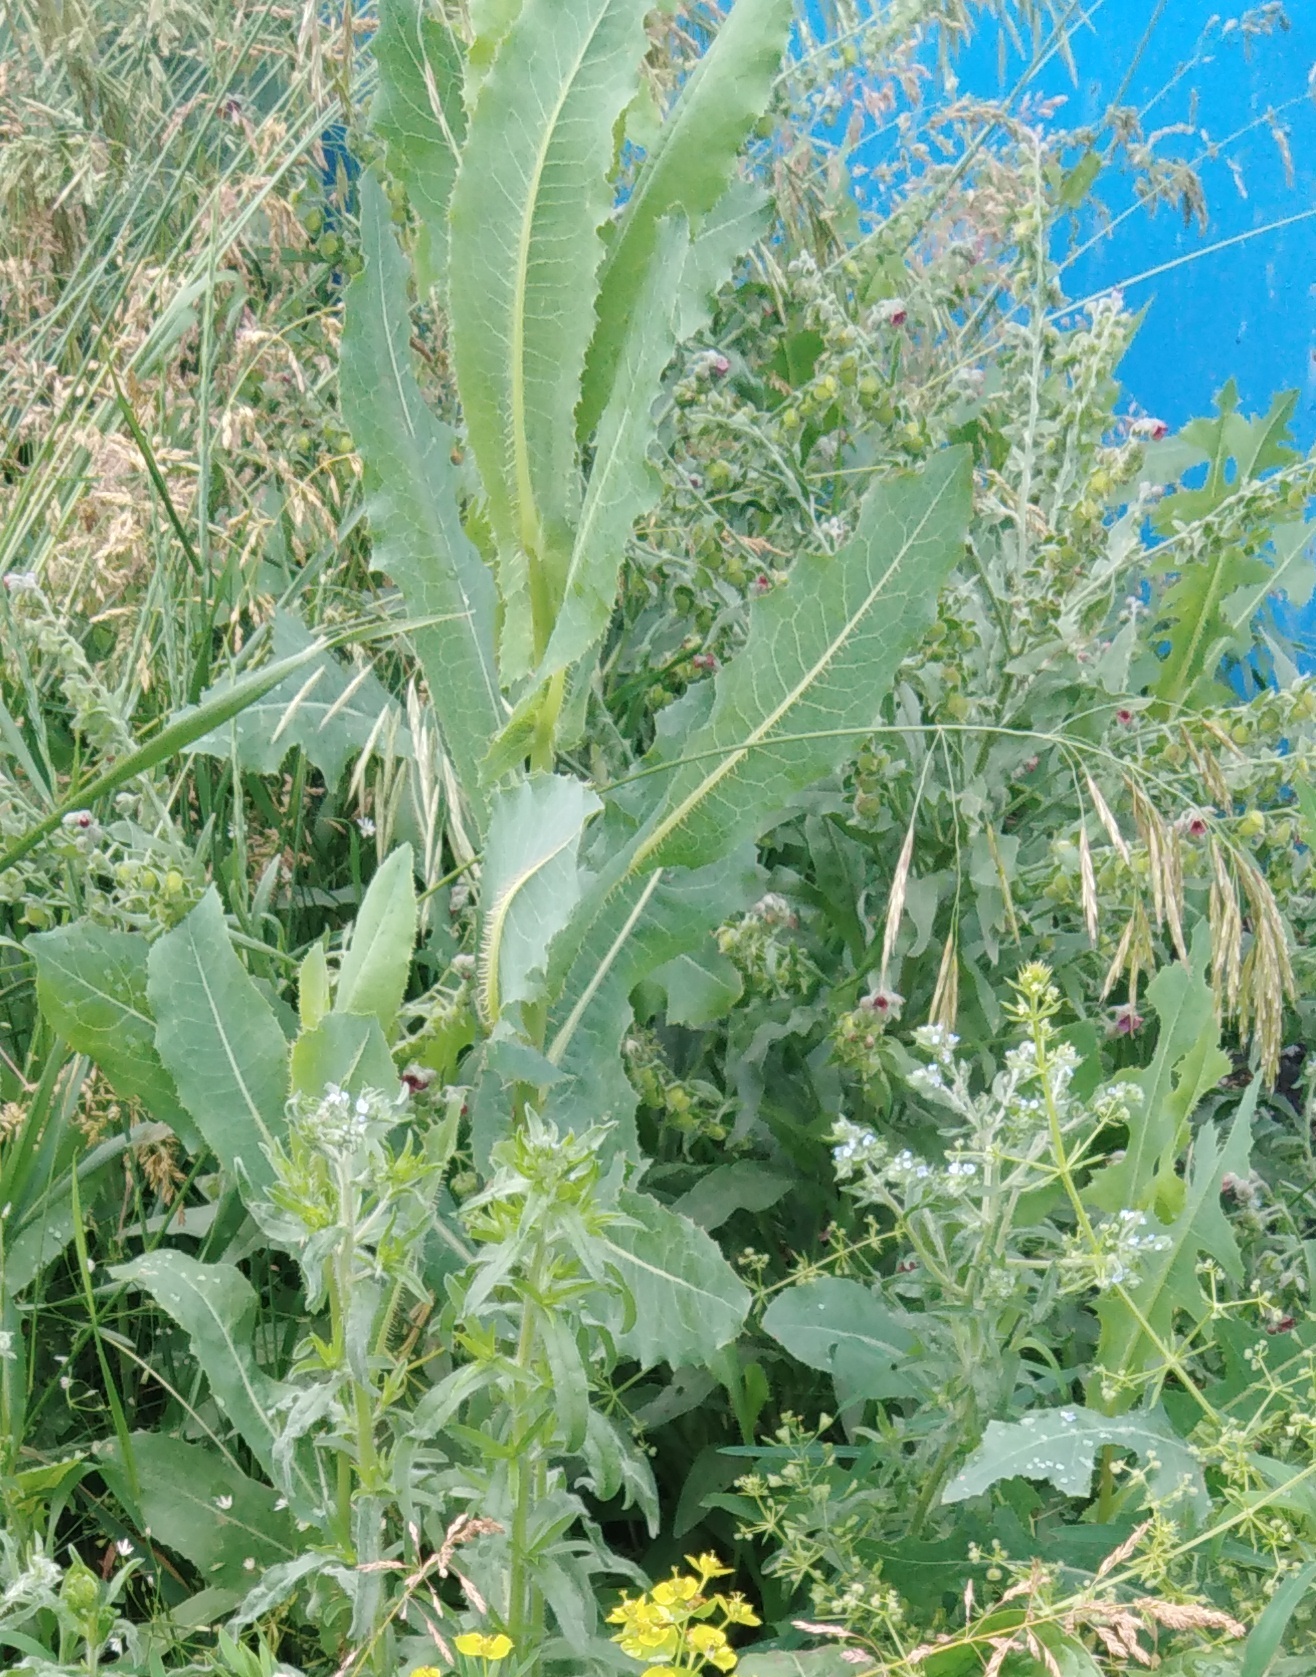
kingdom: Plantae
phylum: Tracheophyta
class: Magnoliopsida
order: Asterales
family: Asteraceae
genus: Lactuca
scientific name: Lactuca serriola
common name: Prickly lettuce
